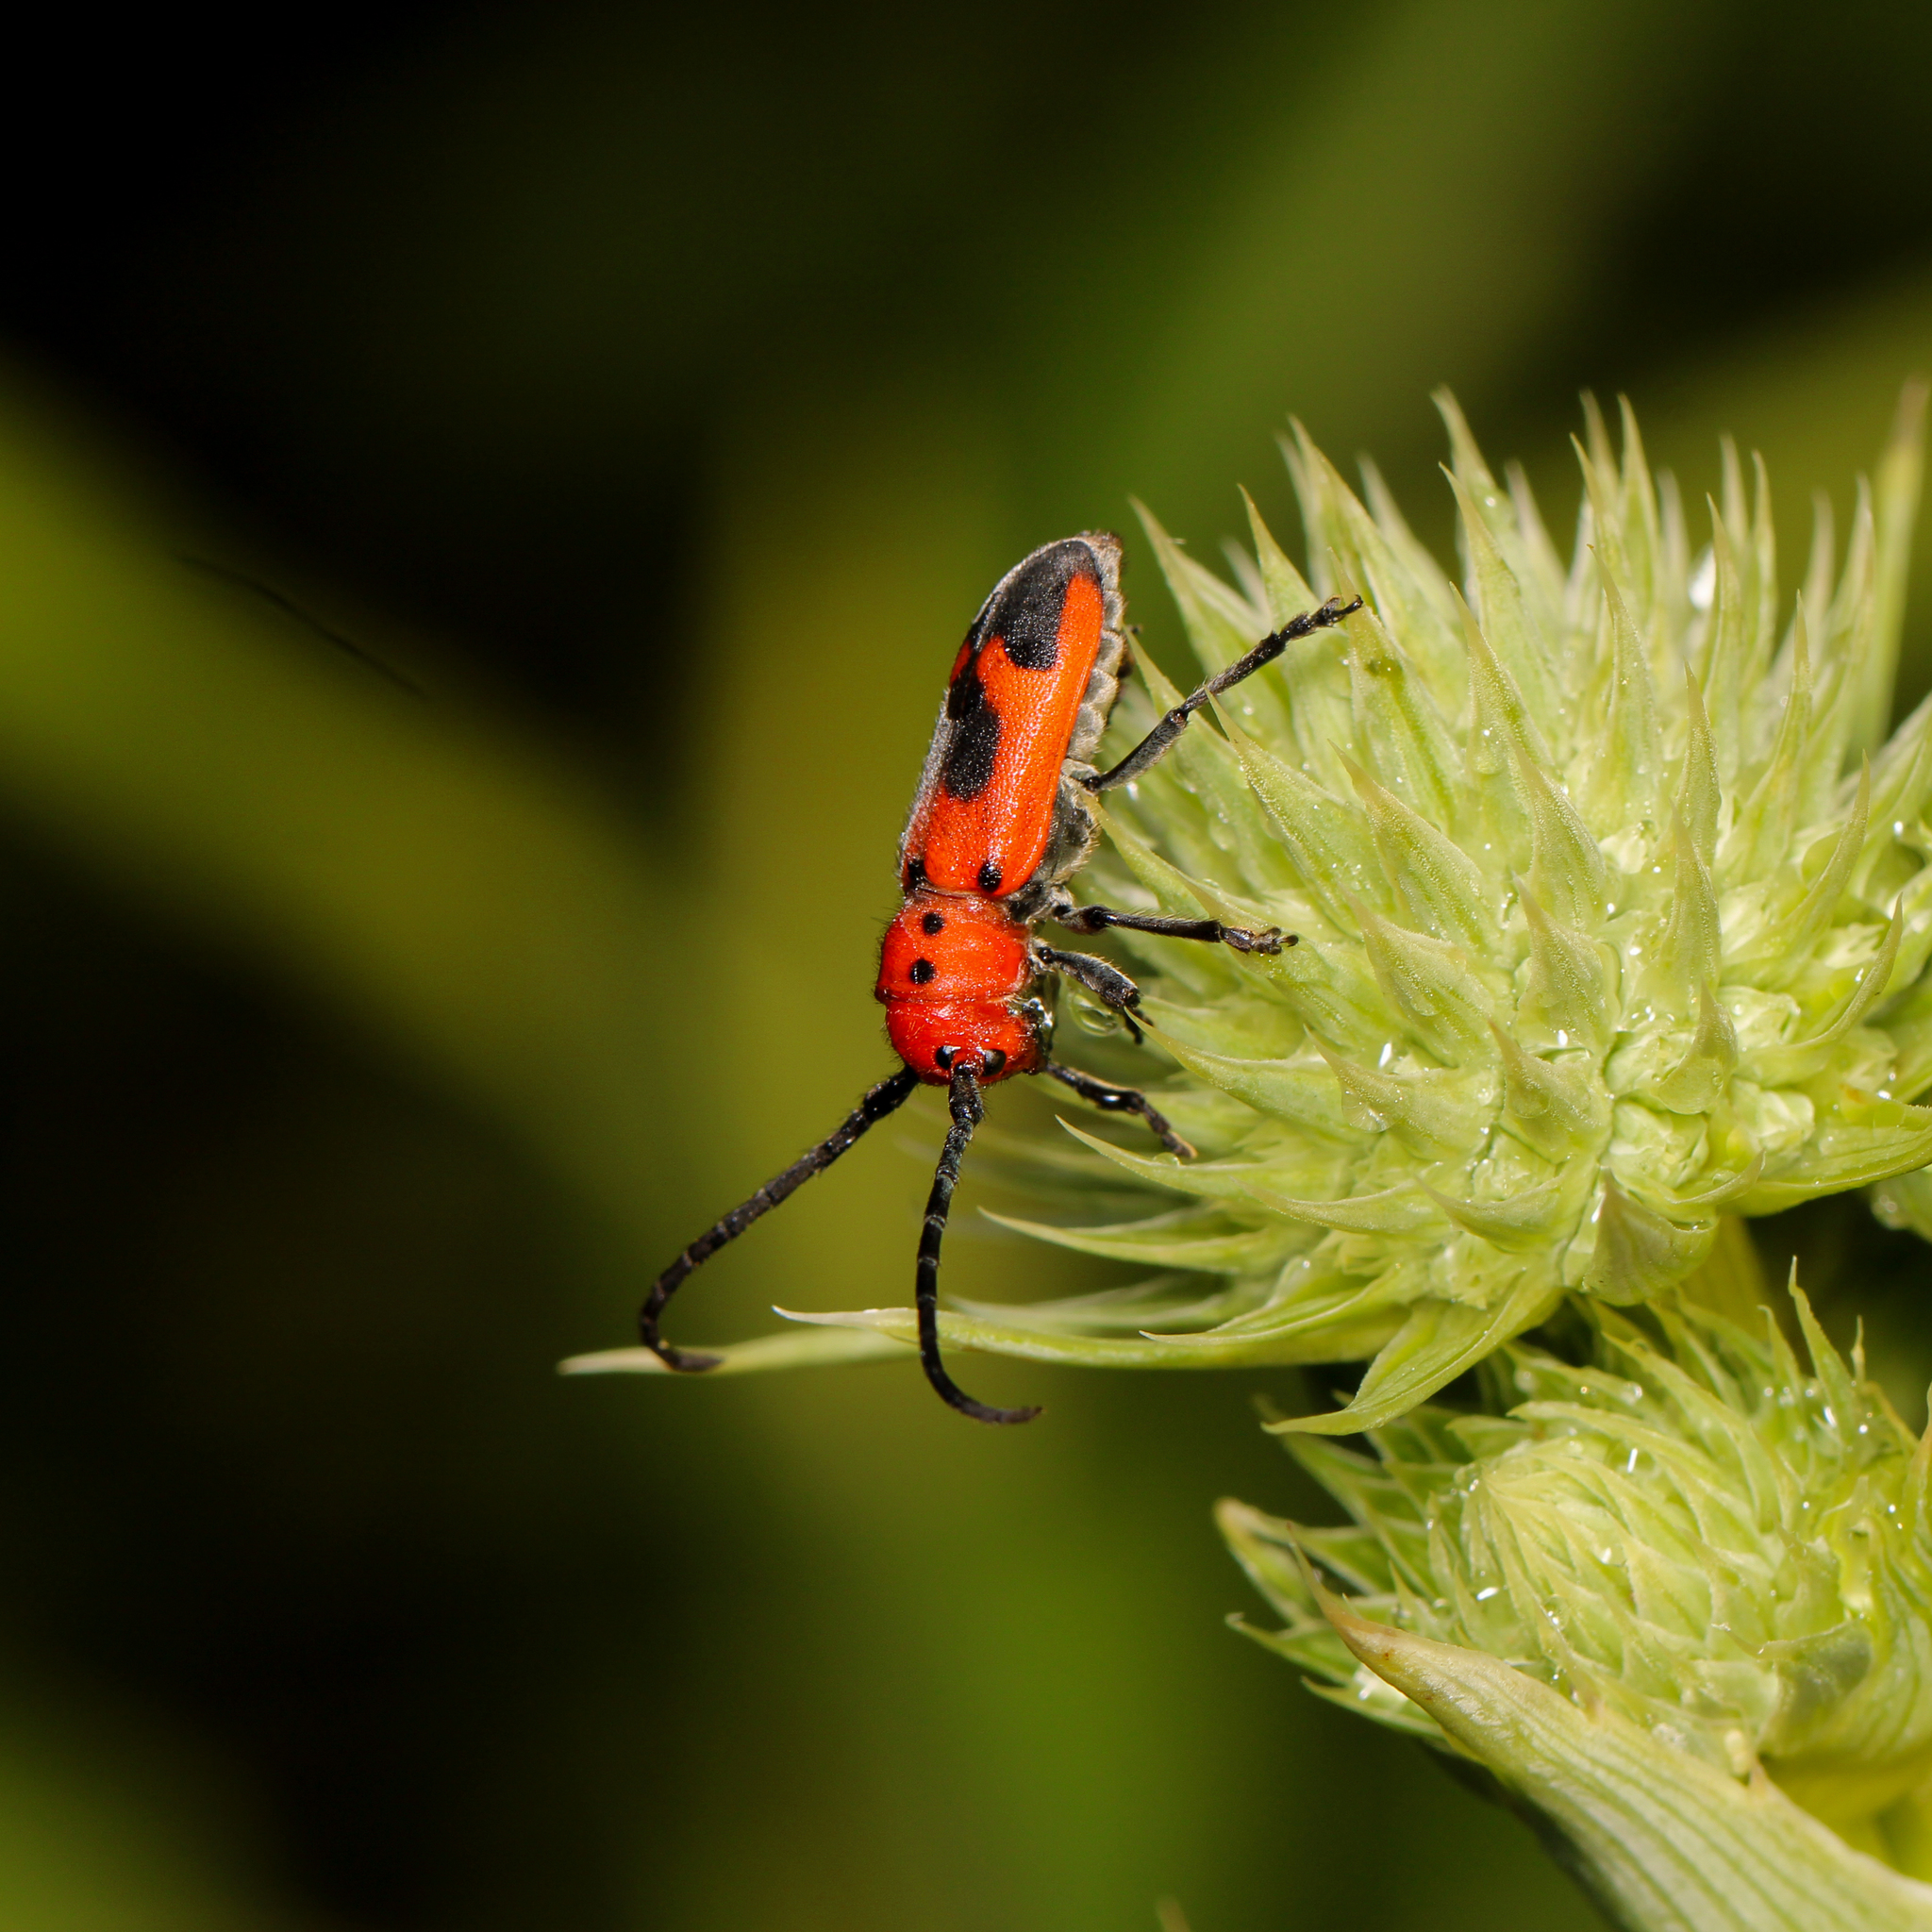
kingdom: Animalia
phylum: Arthropoda
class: Insecta
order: Coleoptera
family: Cerambycidae
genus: Tetraopes
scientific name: Tetraopes melanurus
